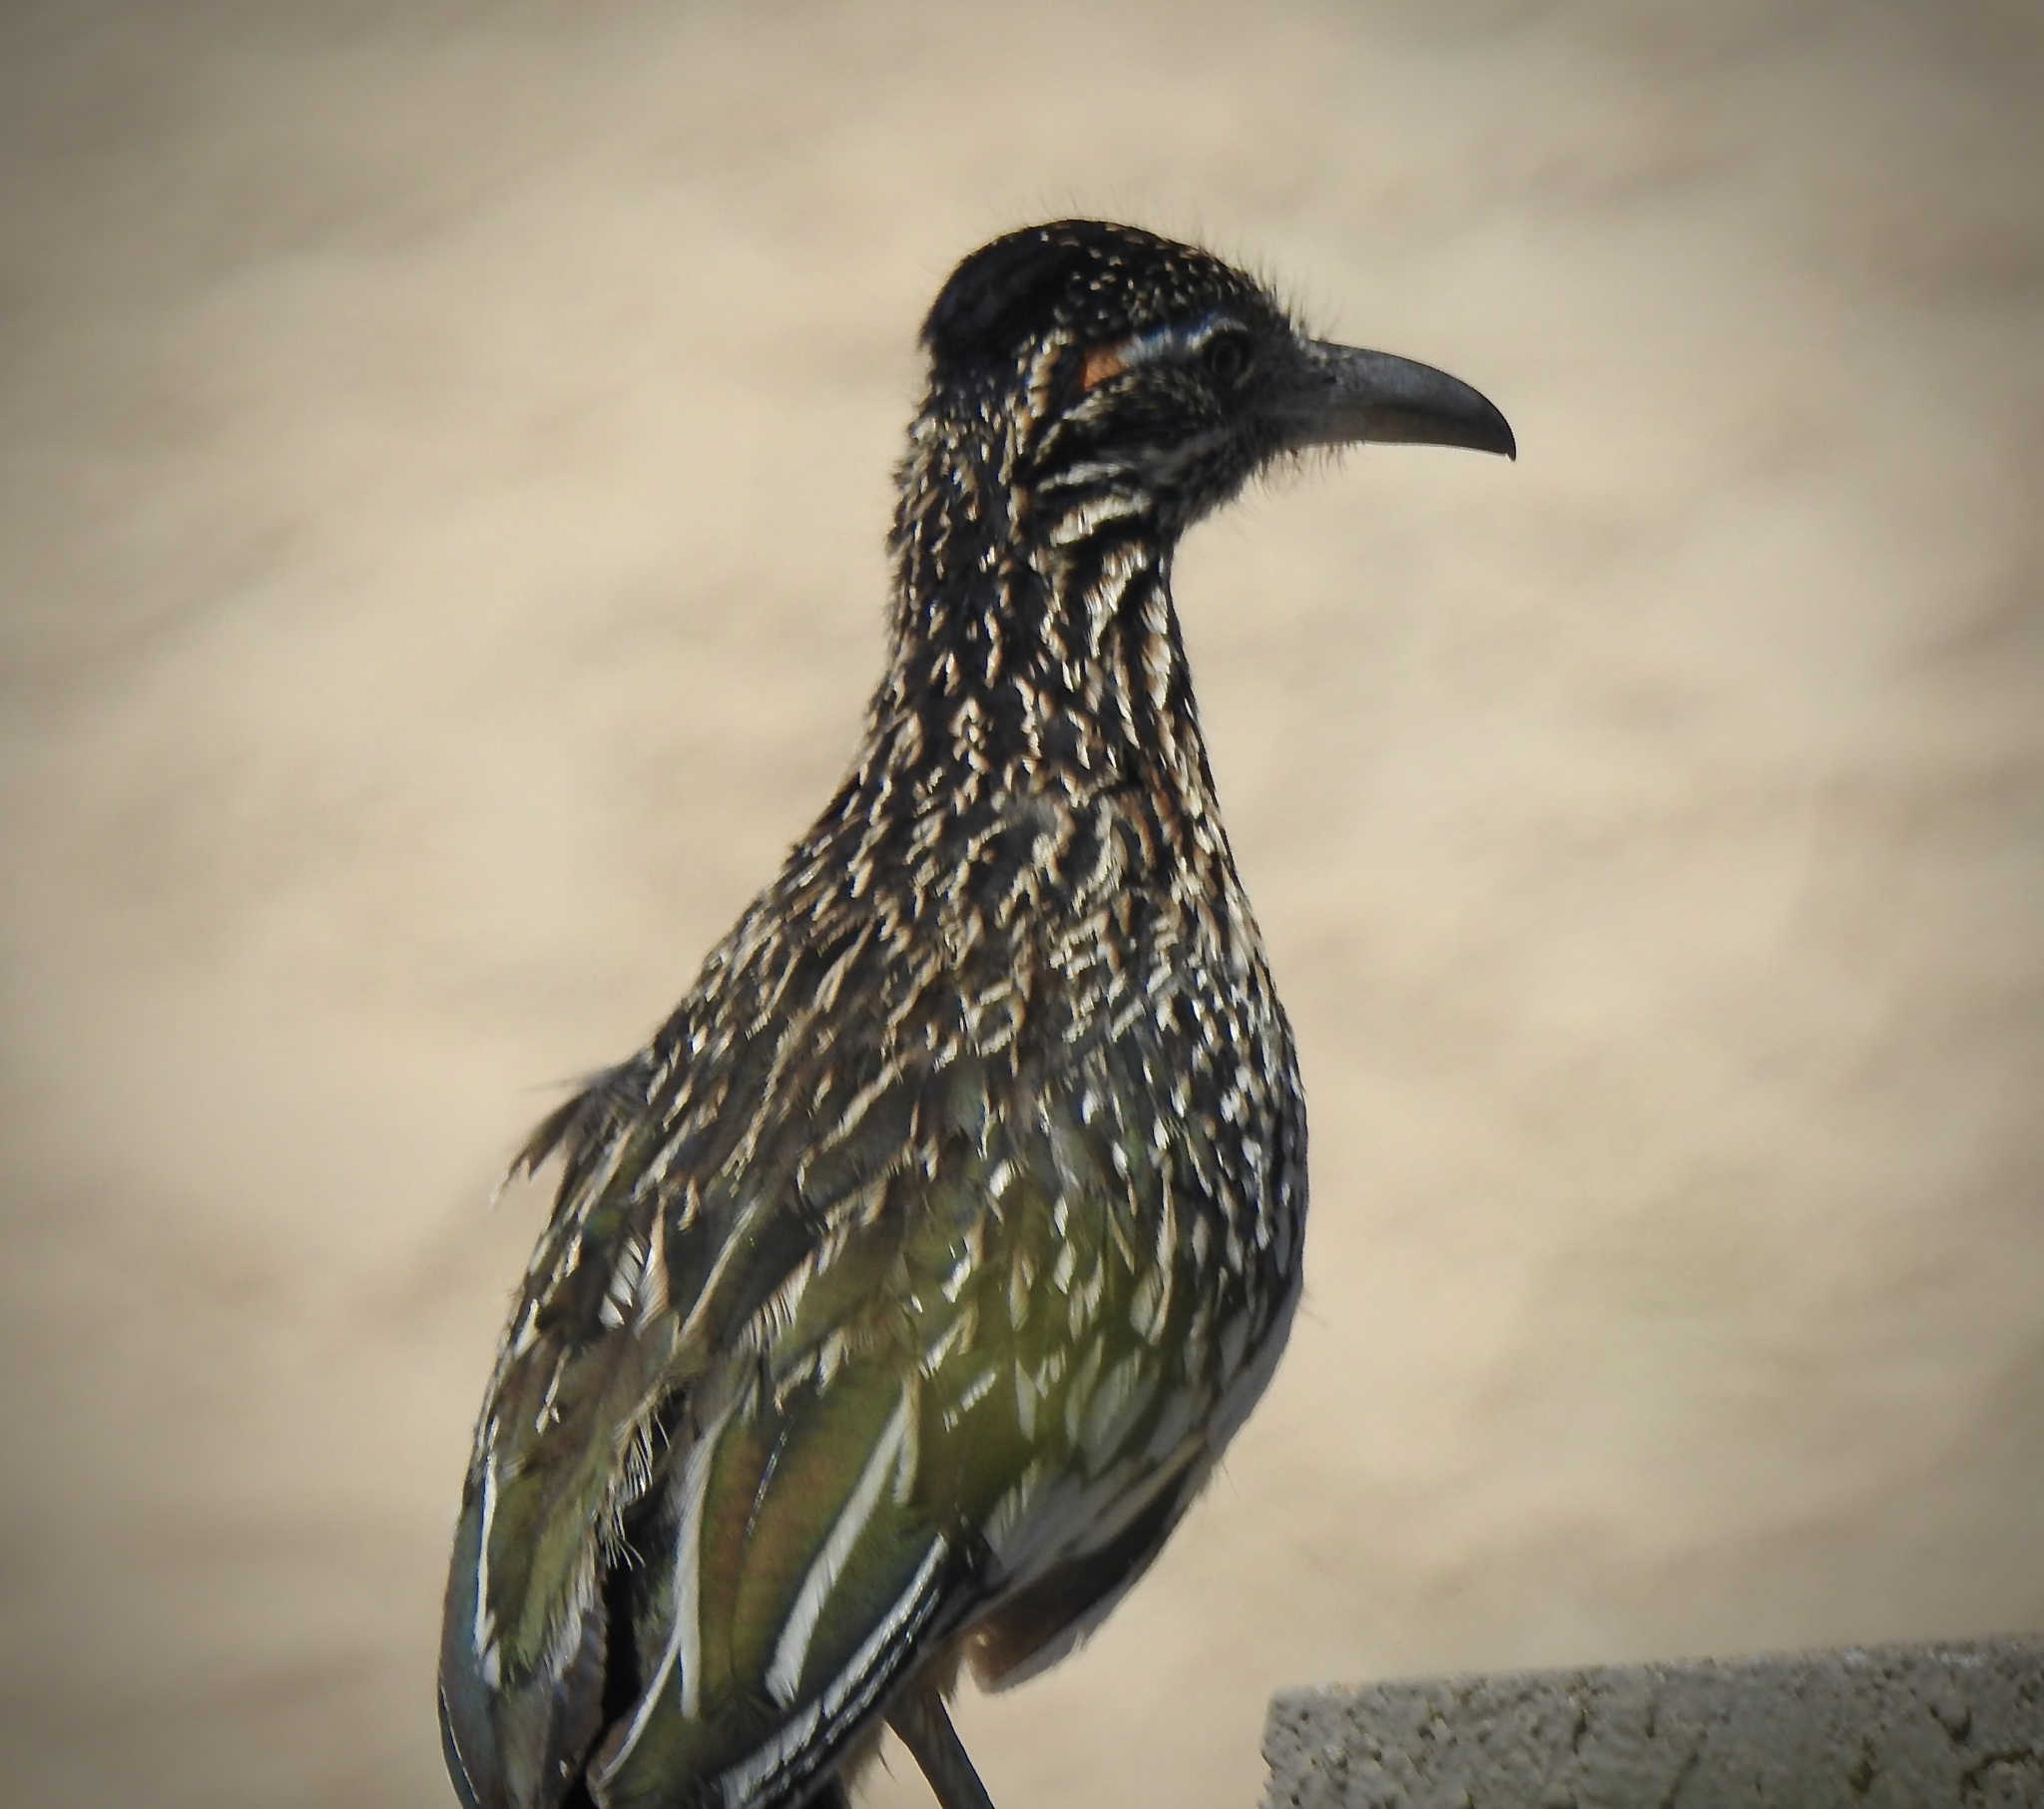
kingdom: Animalia
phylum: Chordata
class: Aves
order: Cuculiformes
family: Cuculidae
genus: Geococcyx
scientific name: Geococcyx californianus
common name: Greater roadrunner
